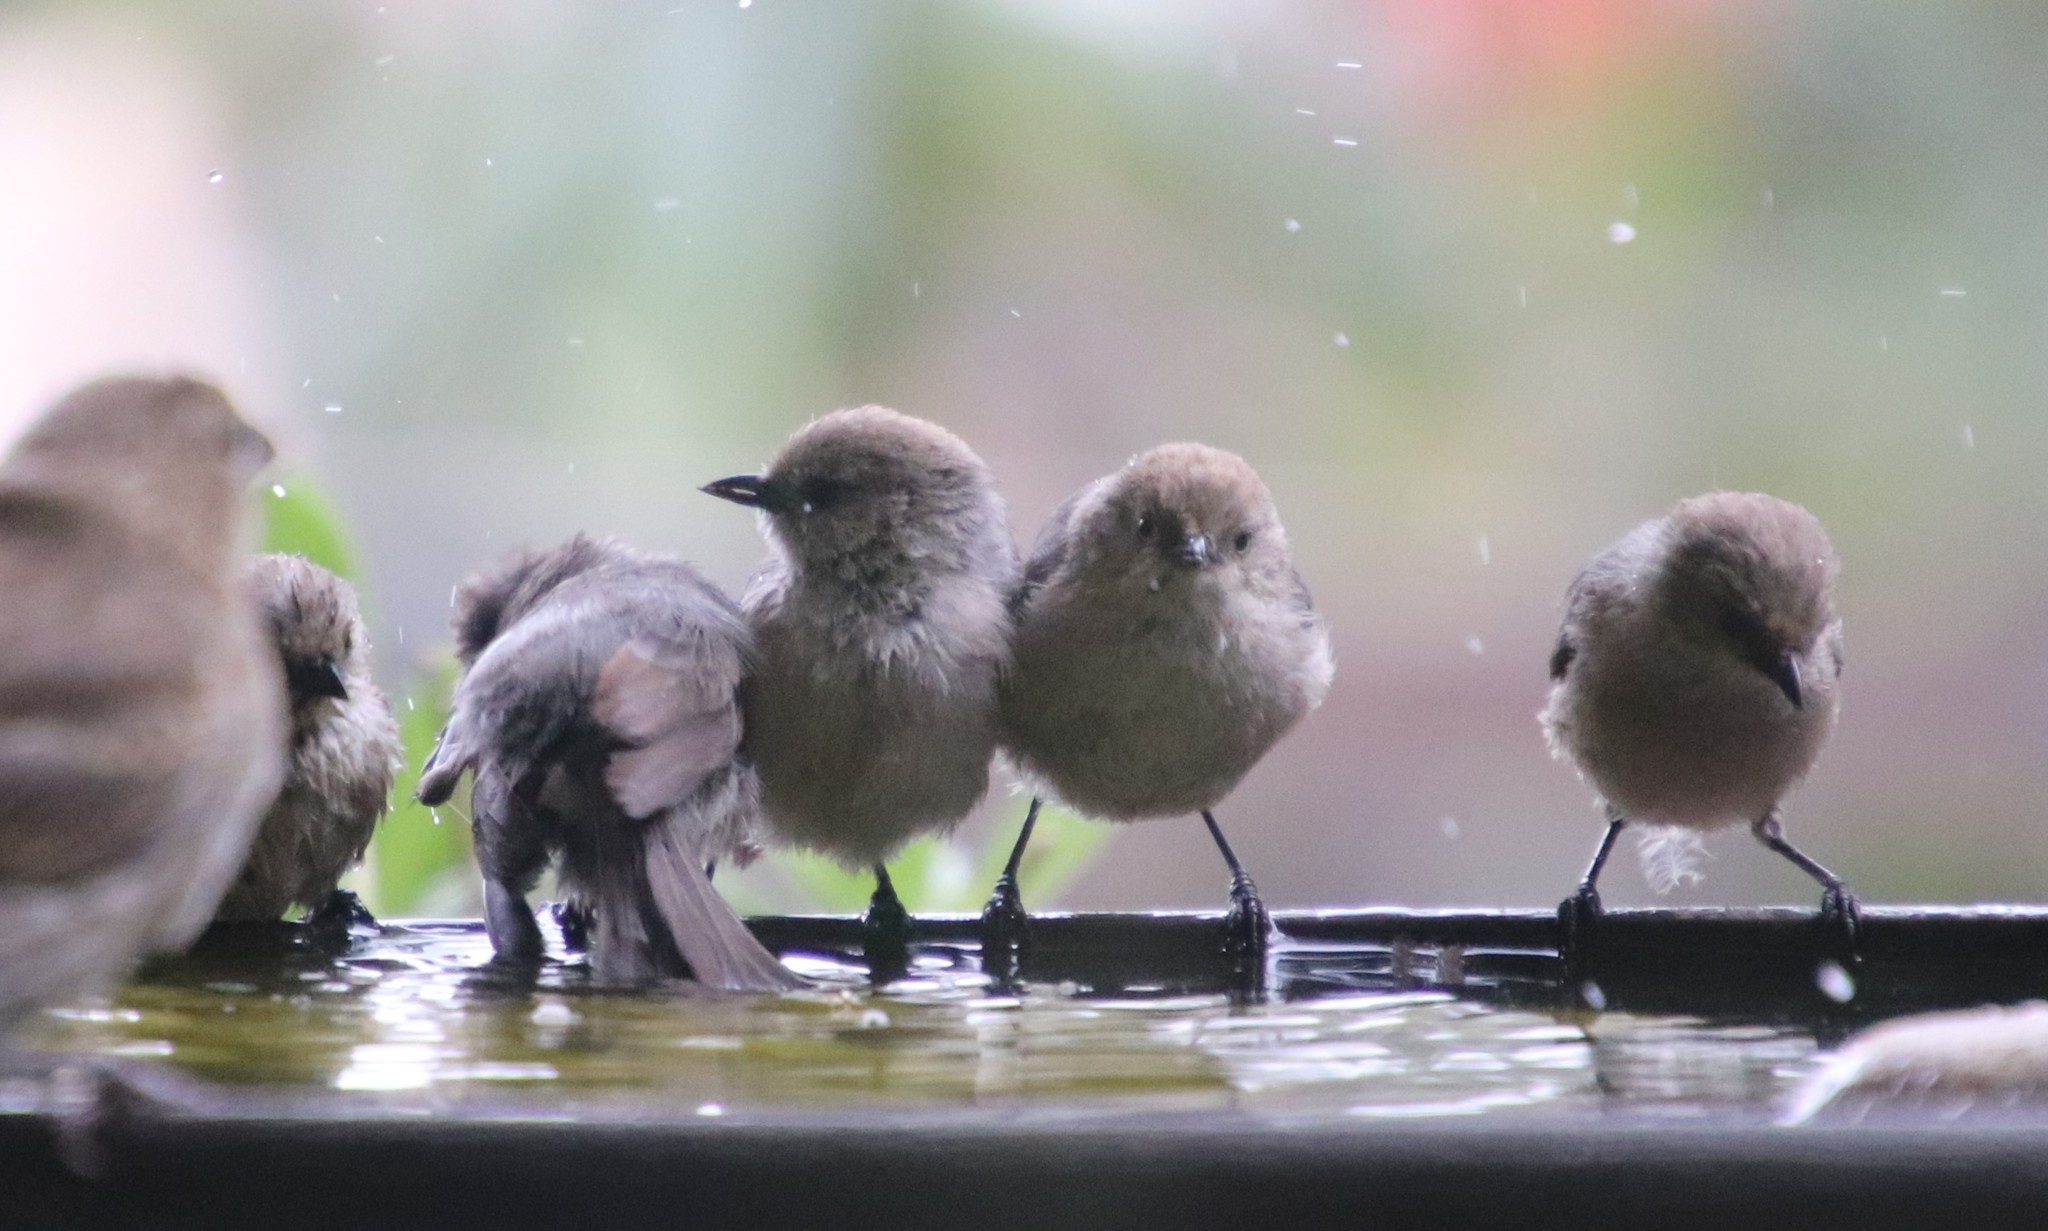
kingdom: Animalia
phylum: Chordata
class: Aves
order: Passeriformes
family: Aegithalidae
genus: Psaltriparus
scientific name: Psaltriparus minimus
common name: American bushtit
